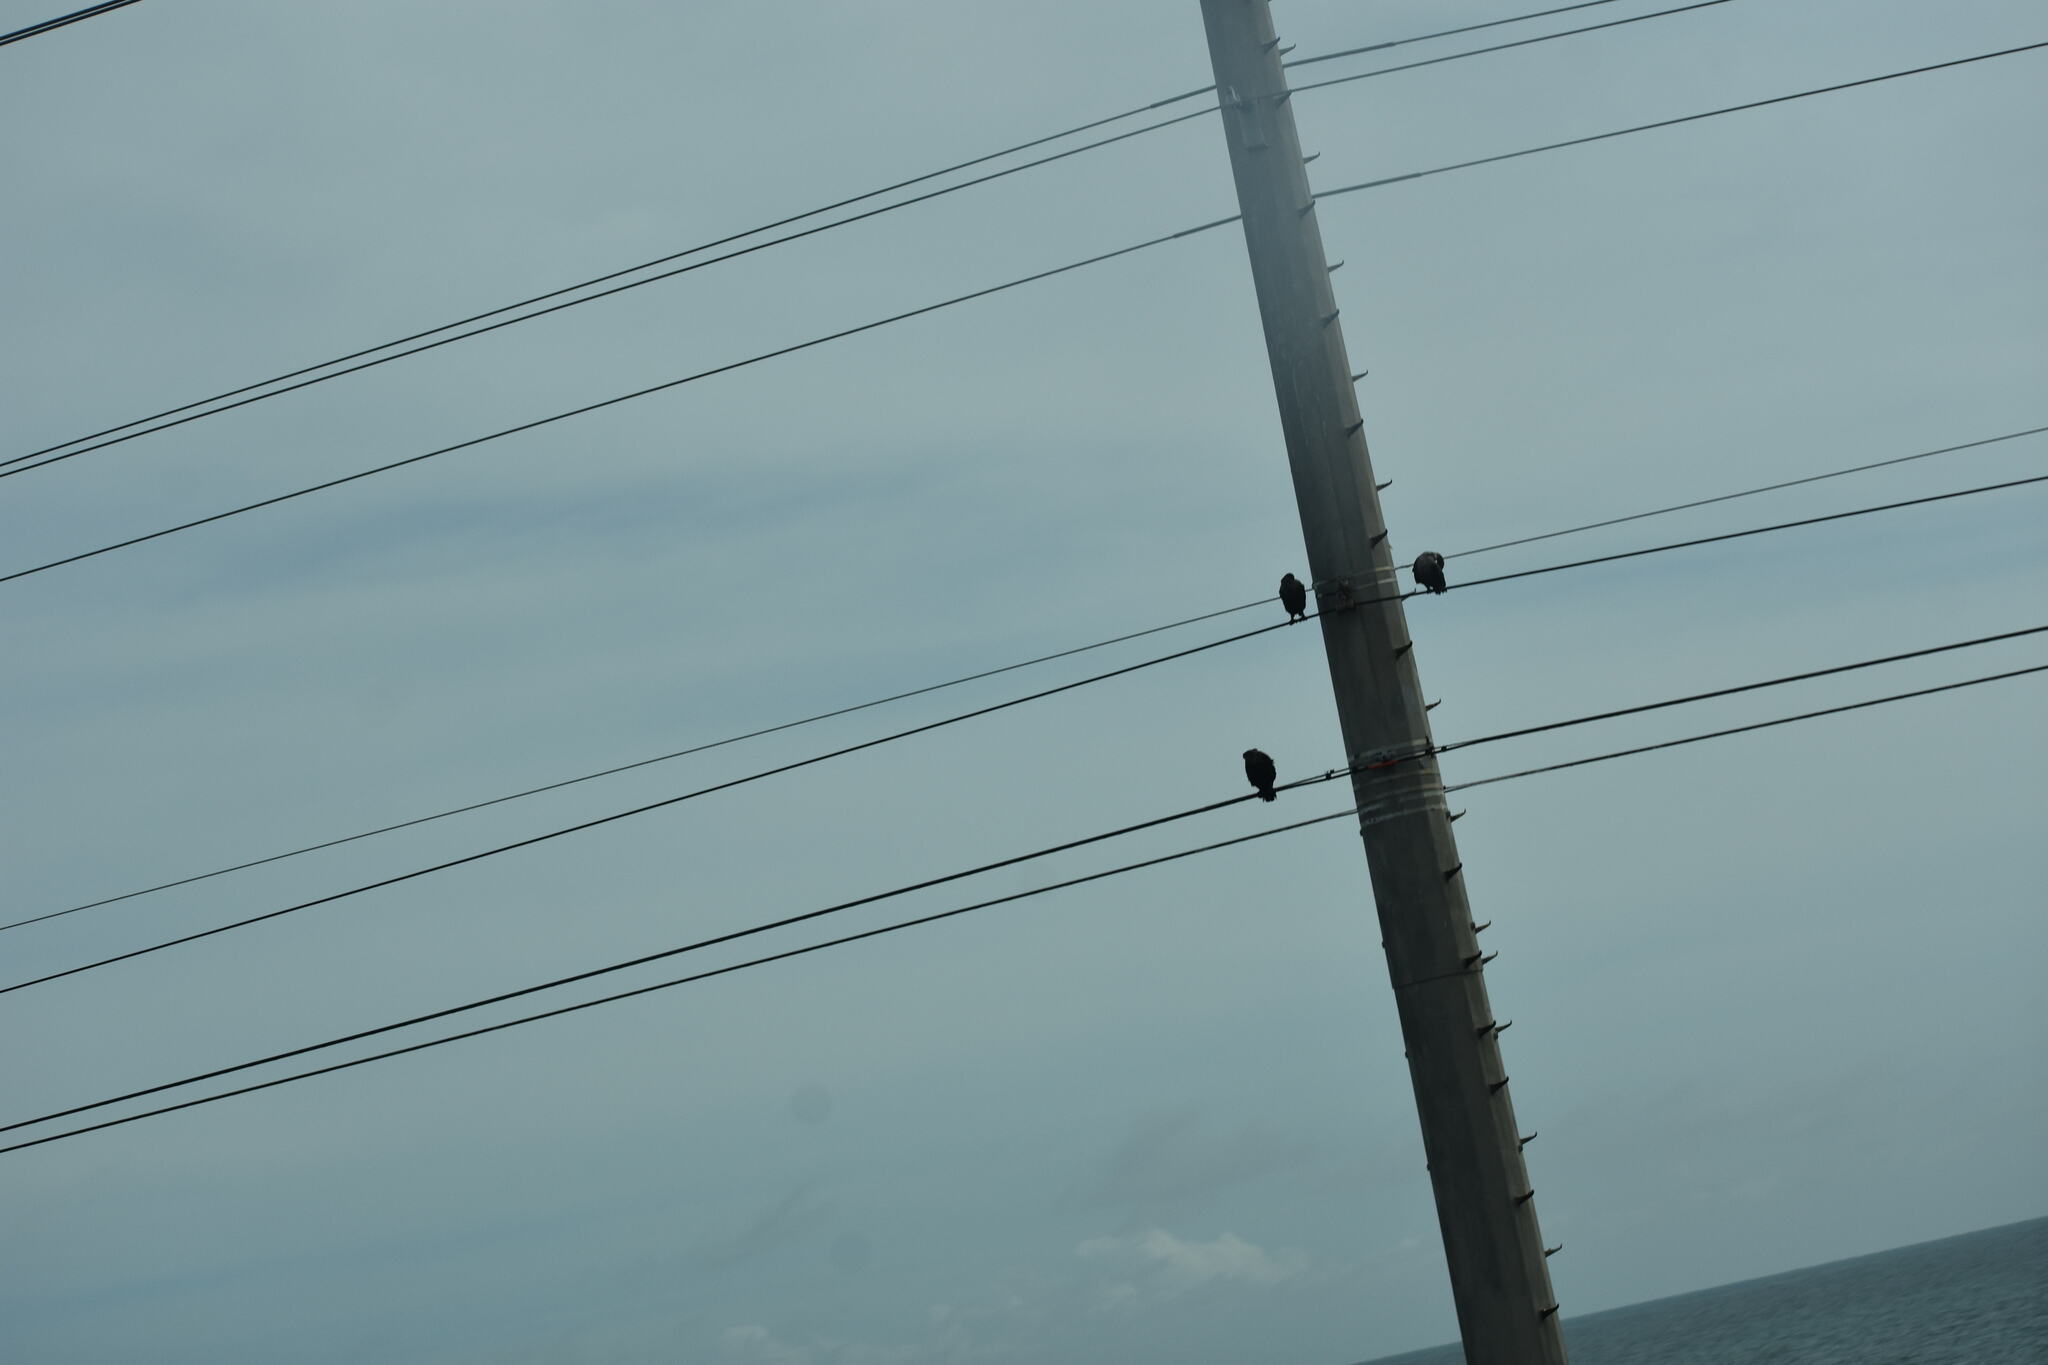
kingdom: Animalia
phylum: Chordata
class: Aves
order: Suliformes
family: Phalacrocoracidae
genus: Phalacrocorax
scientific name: Phalacrocorax auritus
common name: Double-crested cormorant
